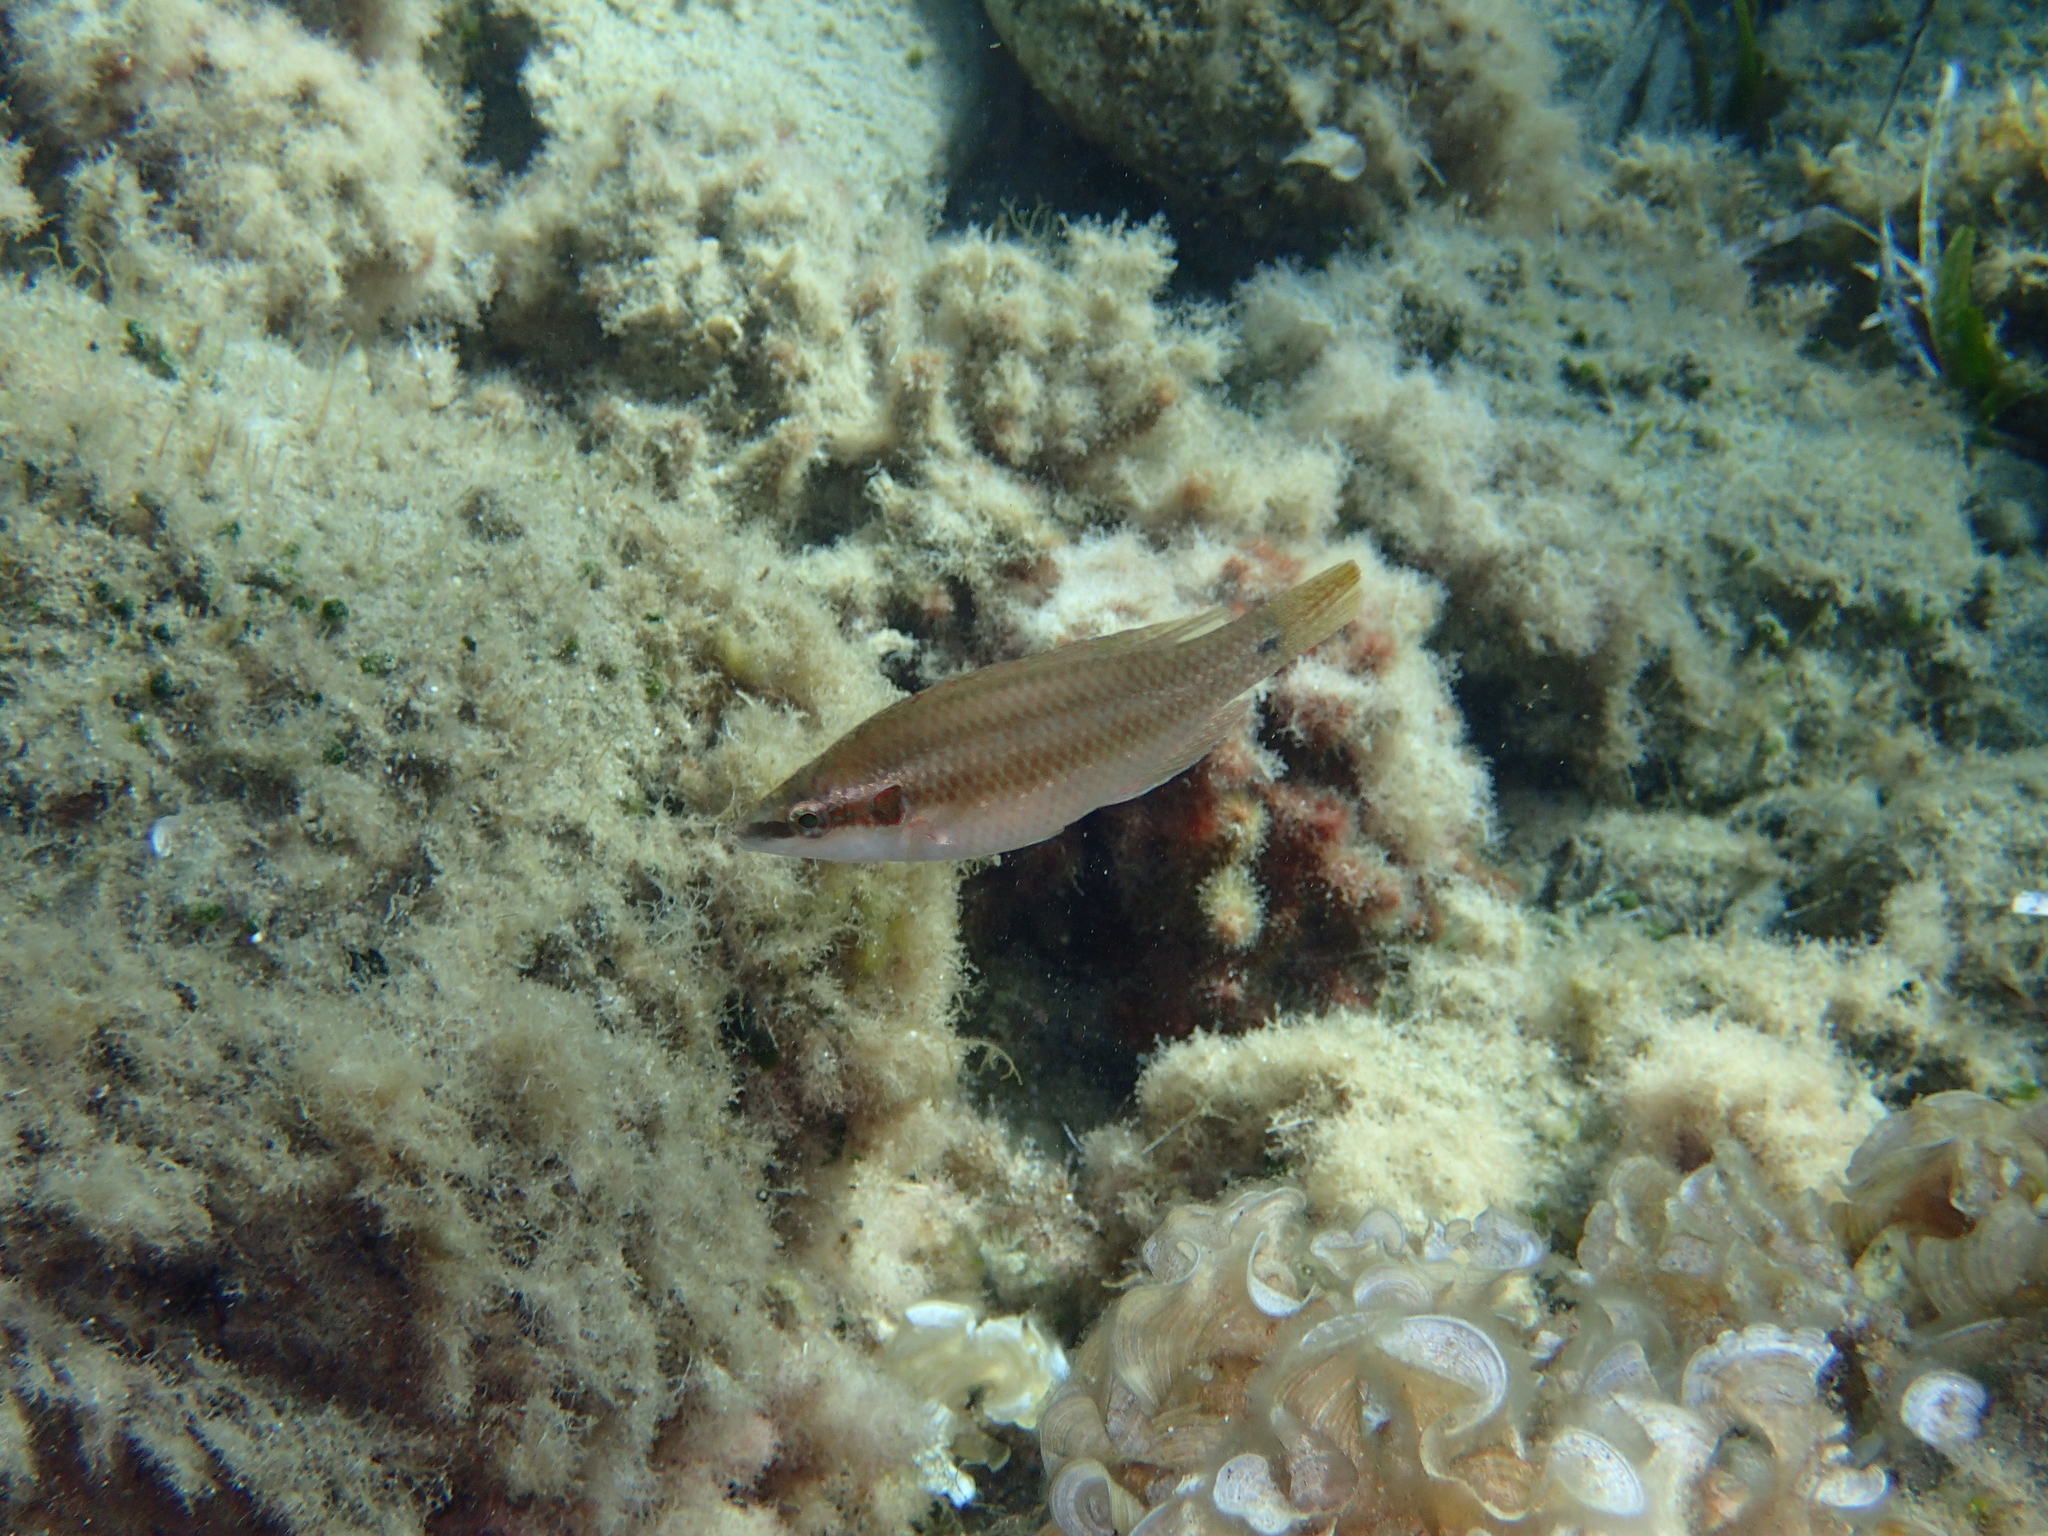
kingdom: Animalia
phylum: Chordata
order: Perciformes
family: Labridae
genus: Symphodus
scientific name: Symphodus ocellatus
